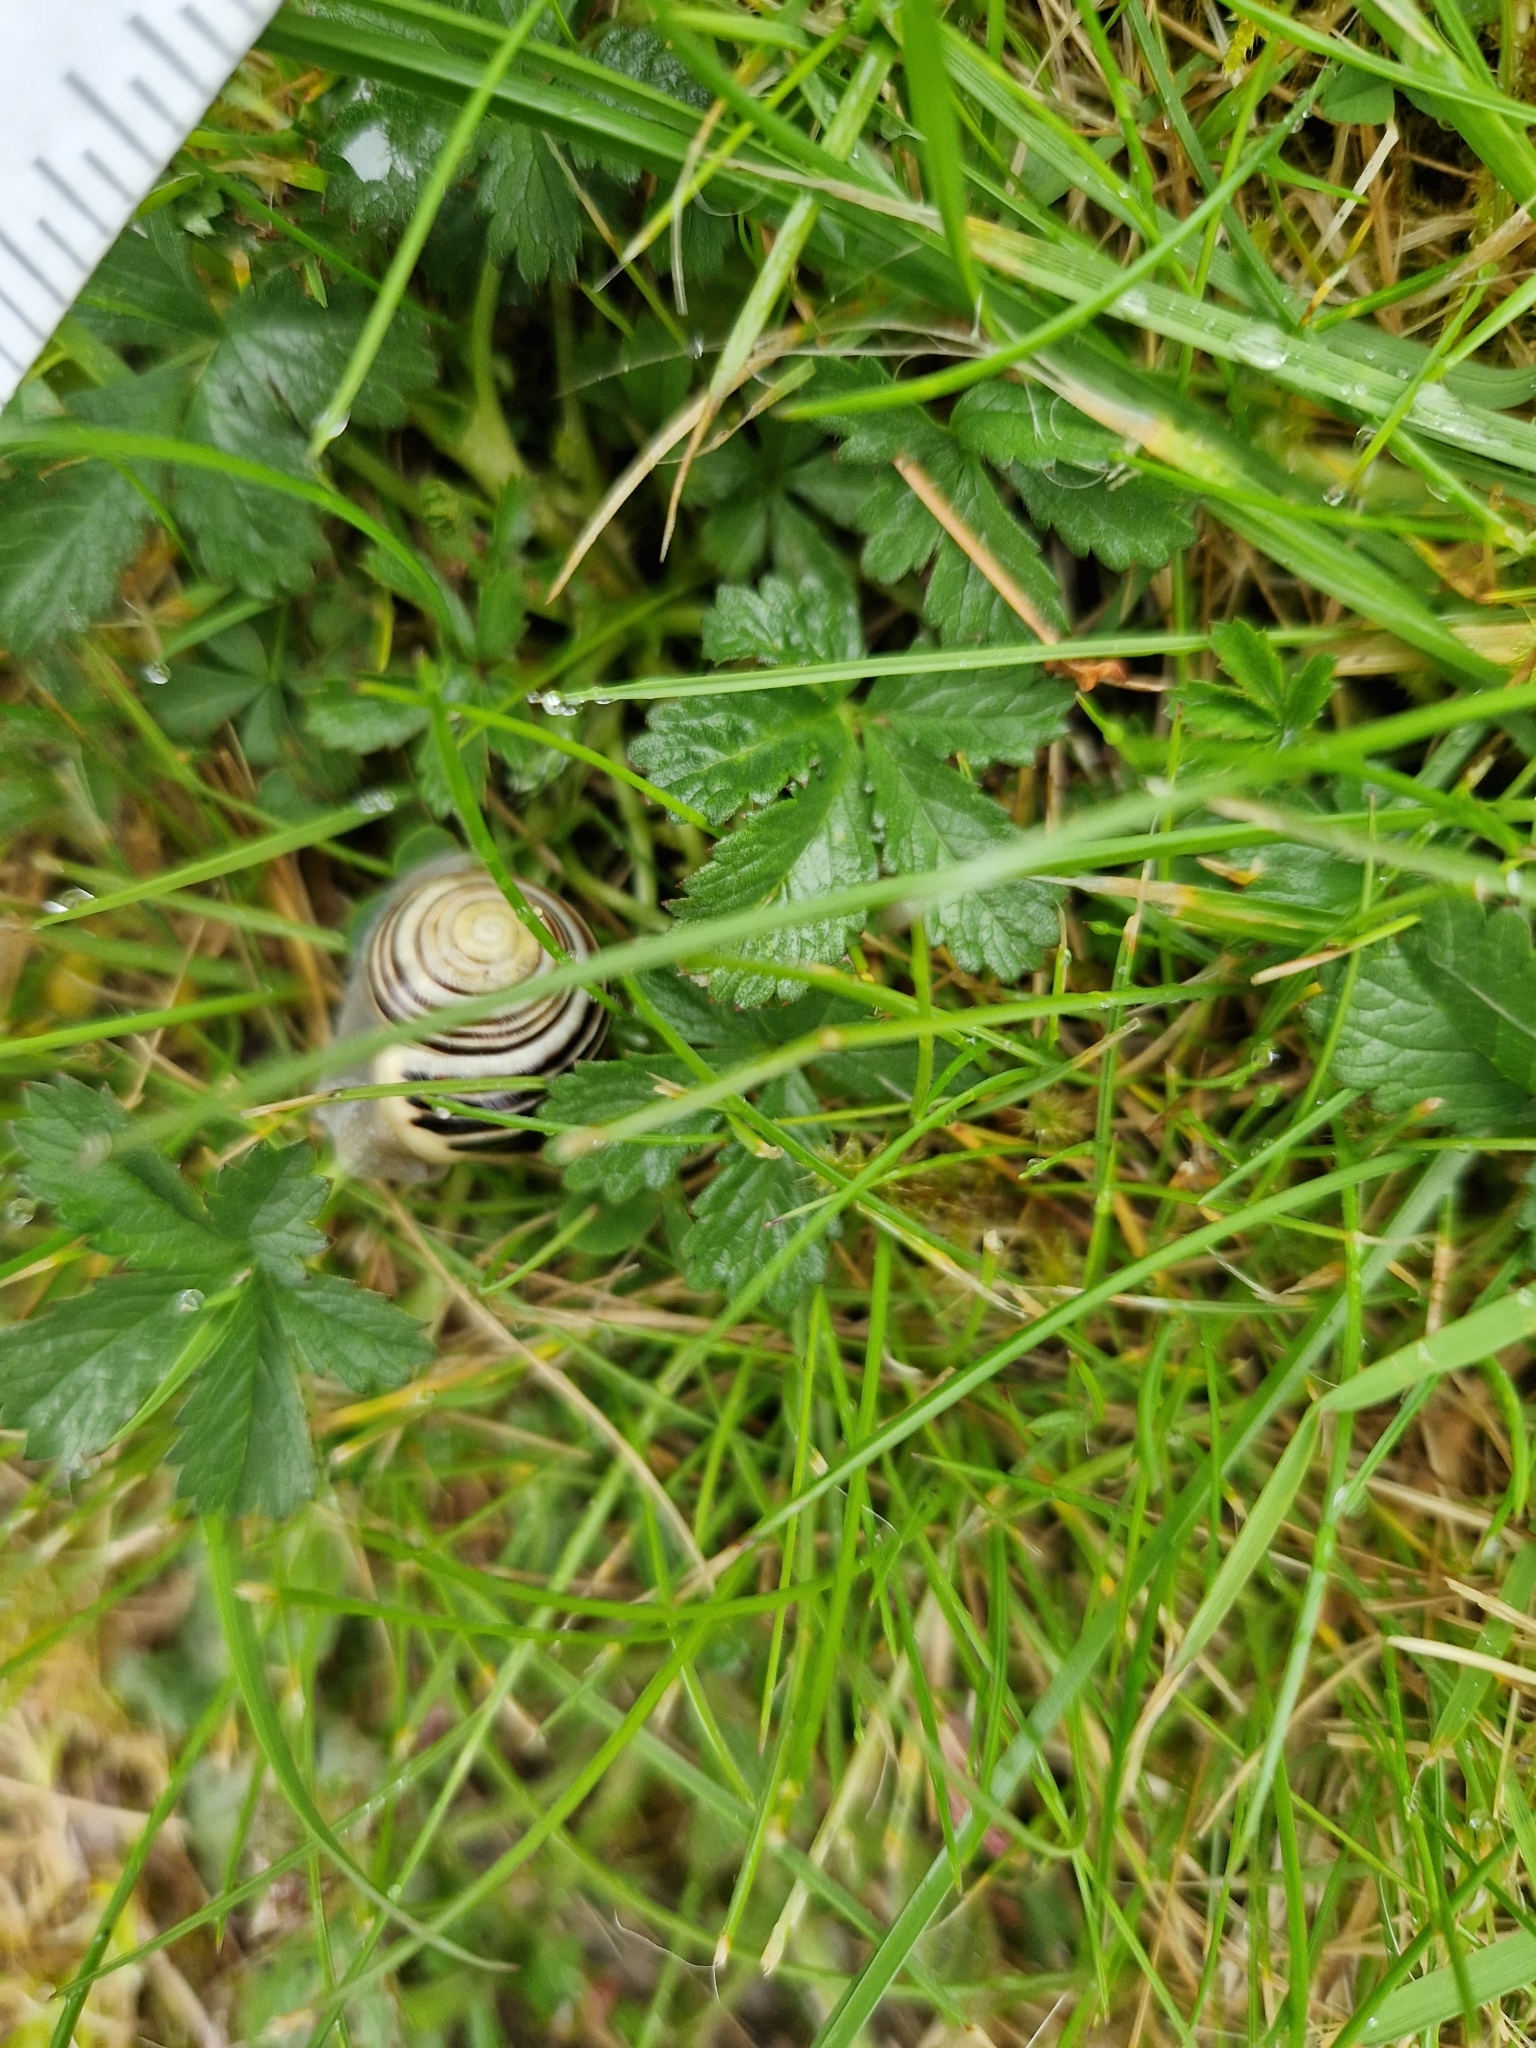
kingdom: Animalia
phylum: Mollusca
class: Gastropoda
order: Stylommatophora
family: Helicidae
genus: Cepaea
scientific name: Cepaea hortensis
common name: White-lip gardensnail
